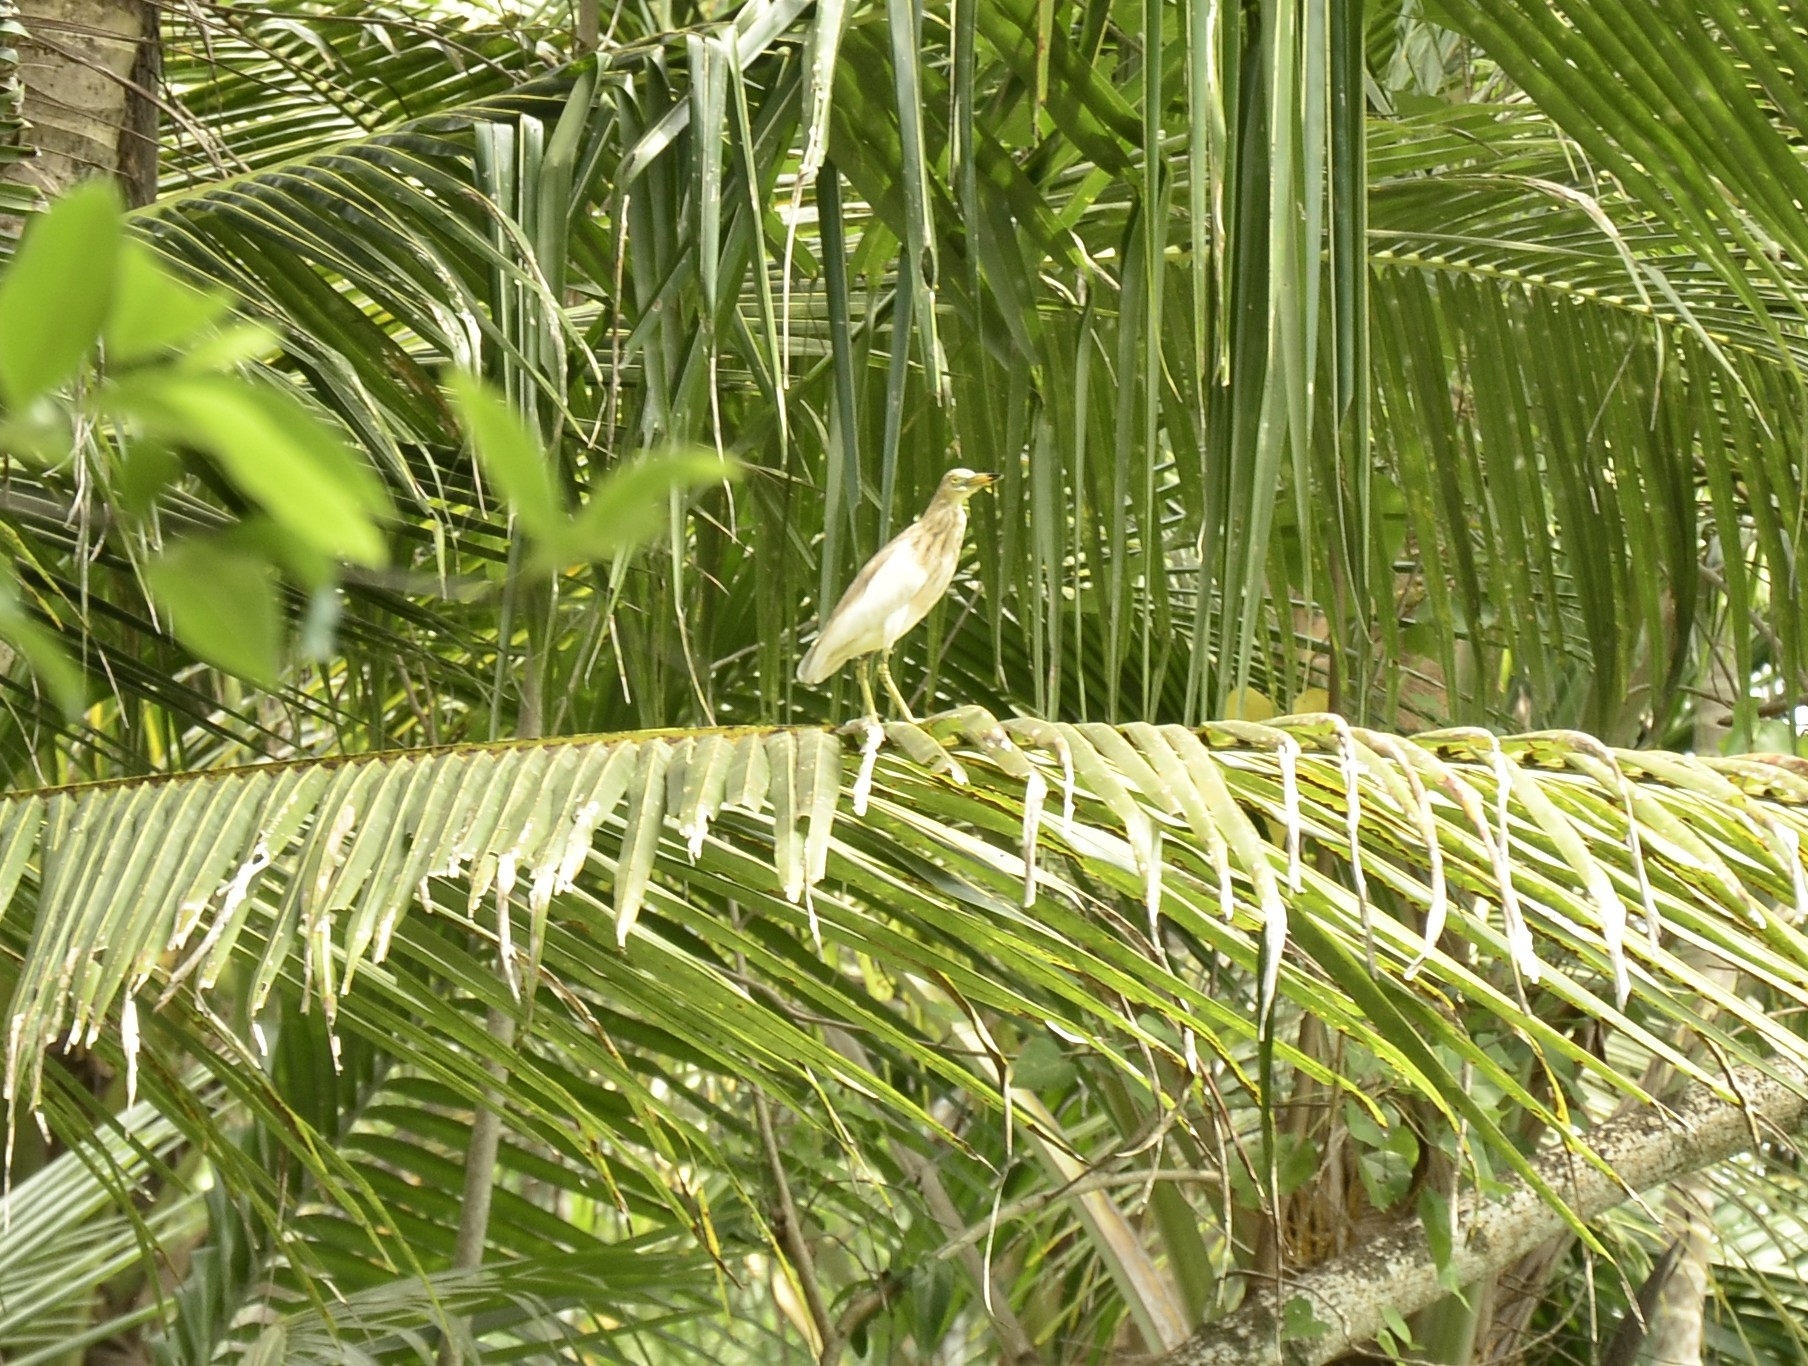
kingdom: Animalia
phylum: Chordata
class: Aves
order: Pelecaniformes
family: Ardeidae
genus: Ardeola
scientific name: Ardeola grayii
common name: Indian pond heron
